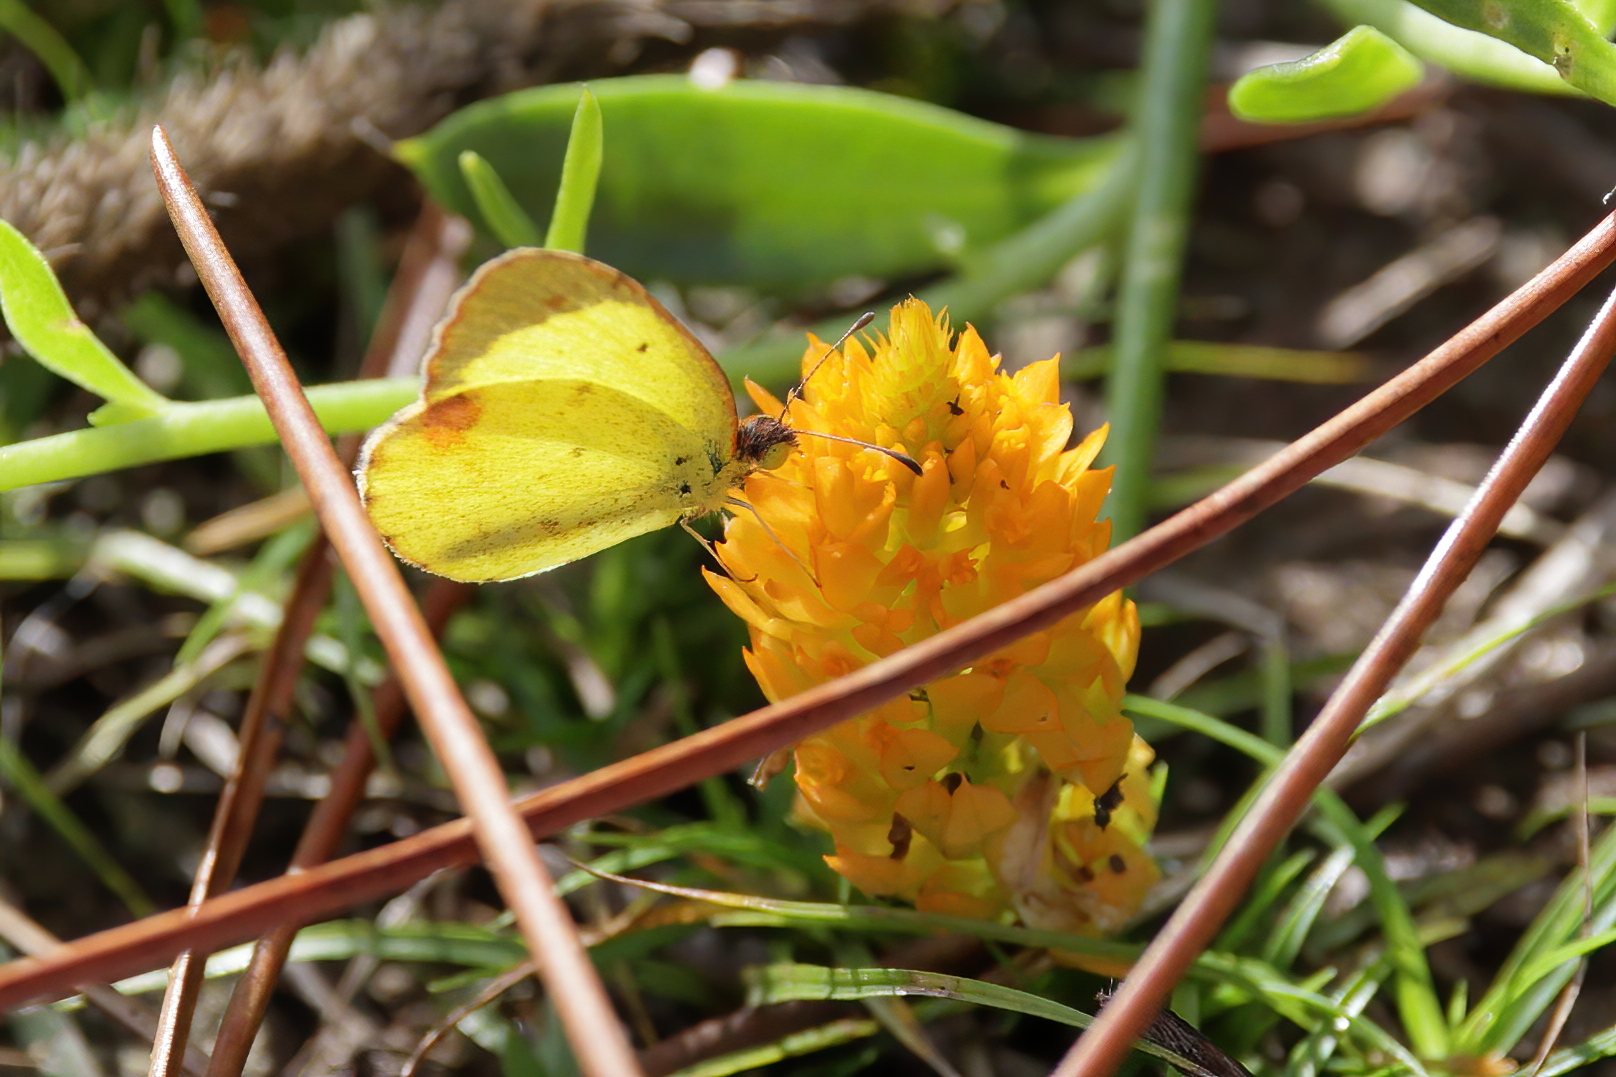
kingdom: Animalia
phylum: Arthropoda
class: Insecta
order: Lepidoptera
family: Pieridae
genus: Pyrisitia
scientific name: Pyrisitia lisa
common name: Little yellow
